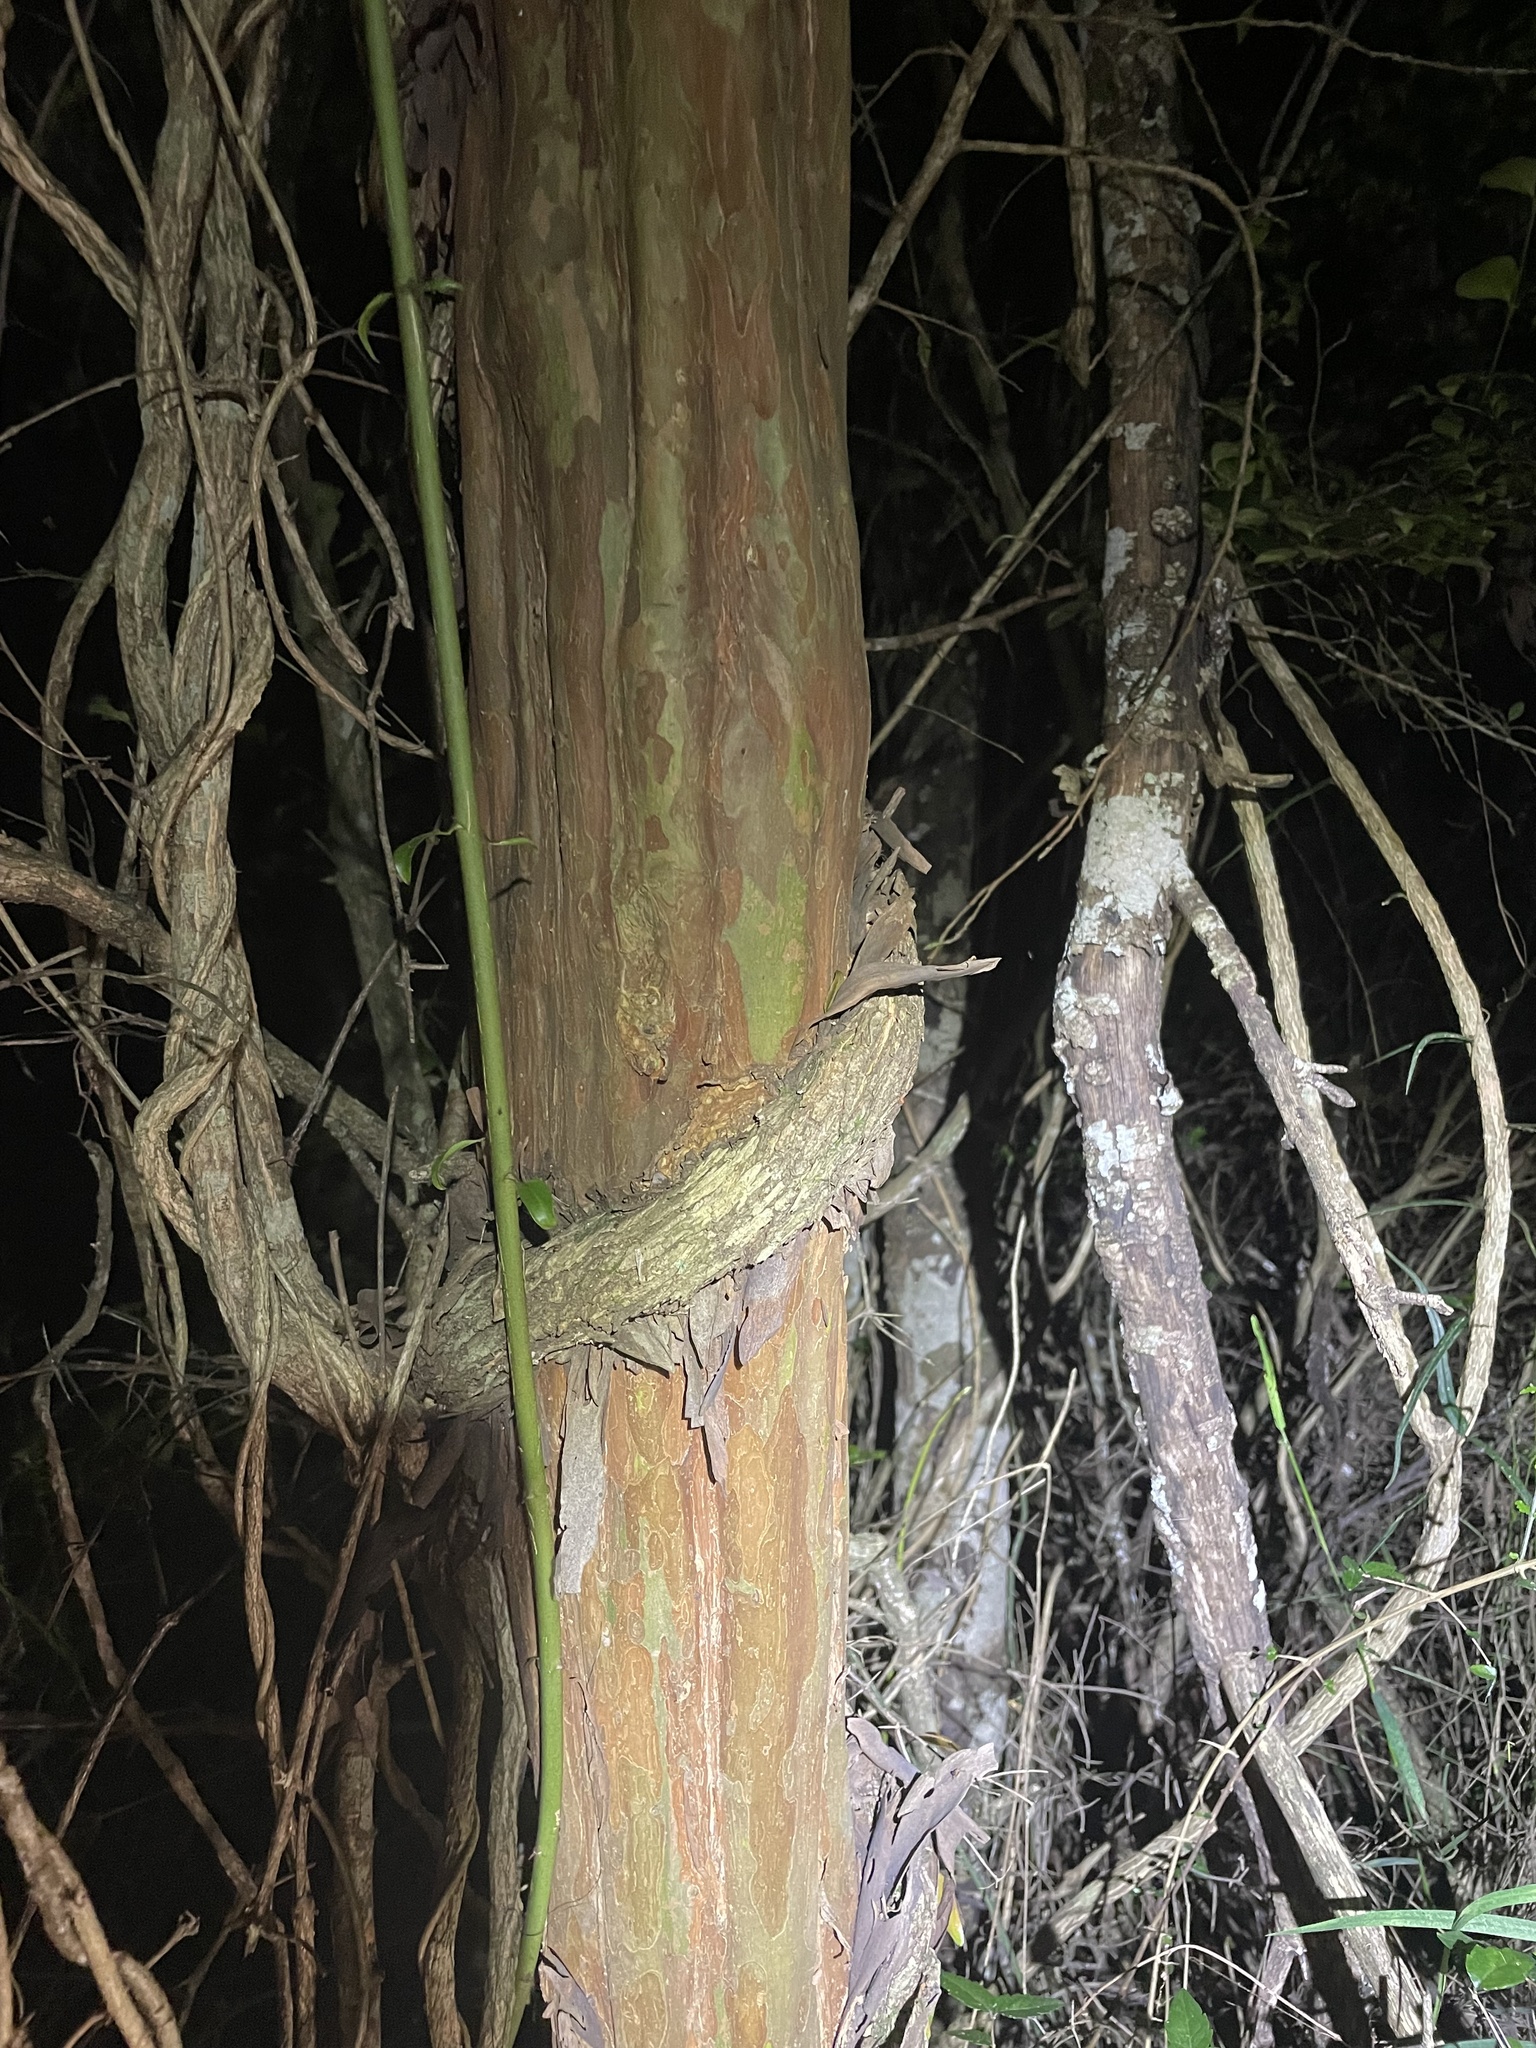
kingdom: Plantae
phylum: Tracheophyta
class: Magnoliopsida
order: Myrtales
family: Myrtaceae
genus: Gossia
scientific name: Gossia bidwillii
